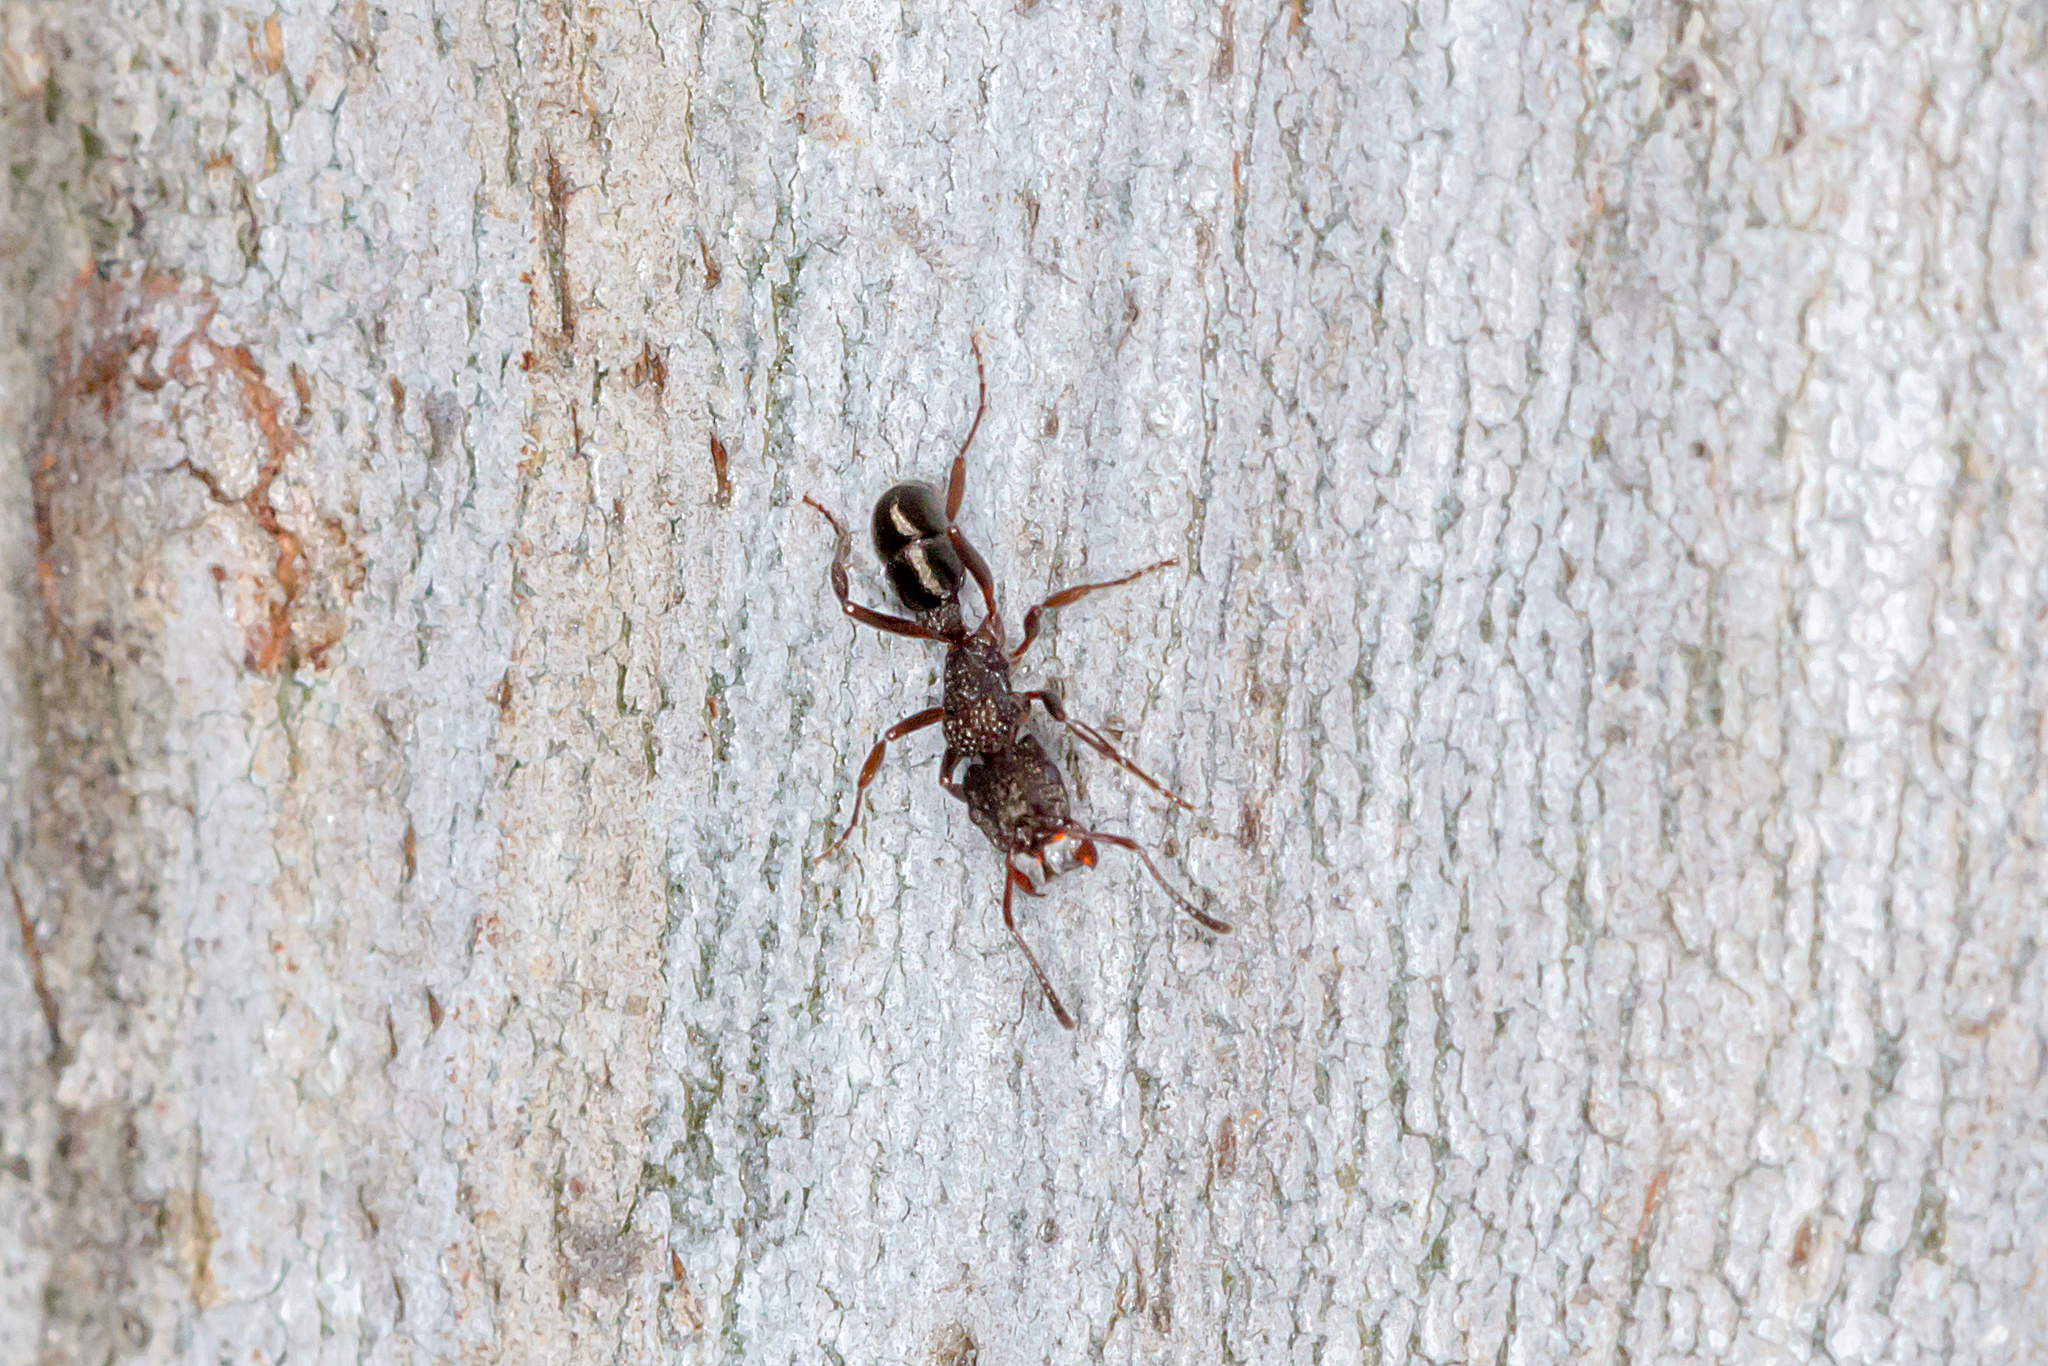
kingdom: Animalia
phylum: Arthropoda
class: Insecta
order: Hymenoptera
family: Formicidae
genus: Rhytidoponera
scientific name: Rhytidoponera tasmaniensis
